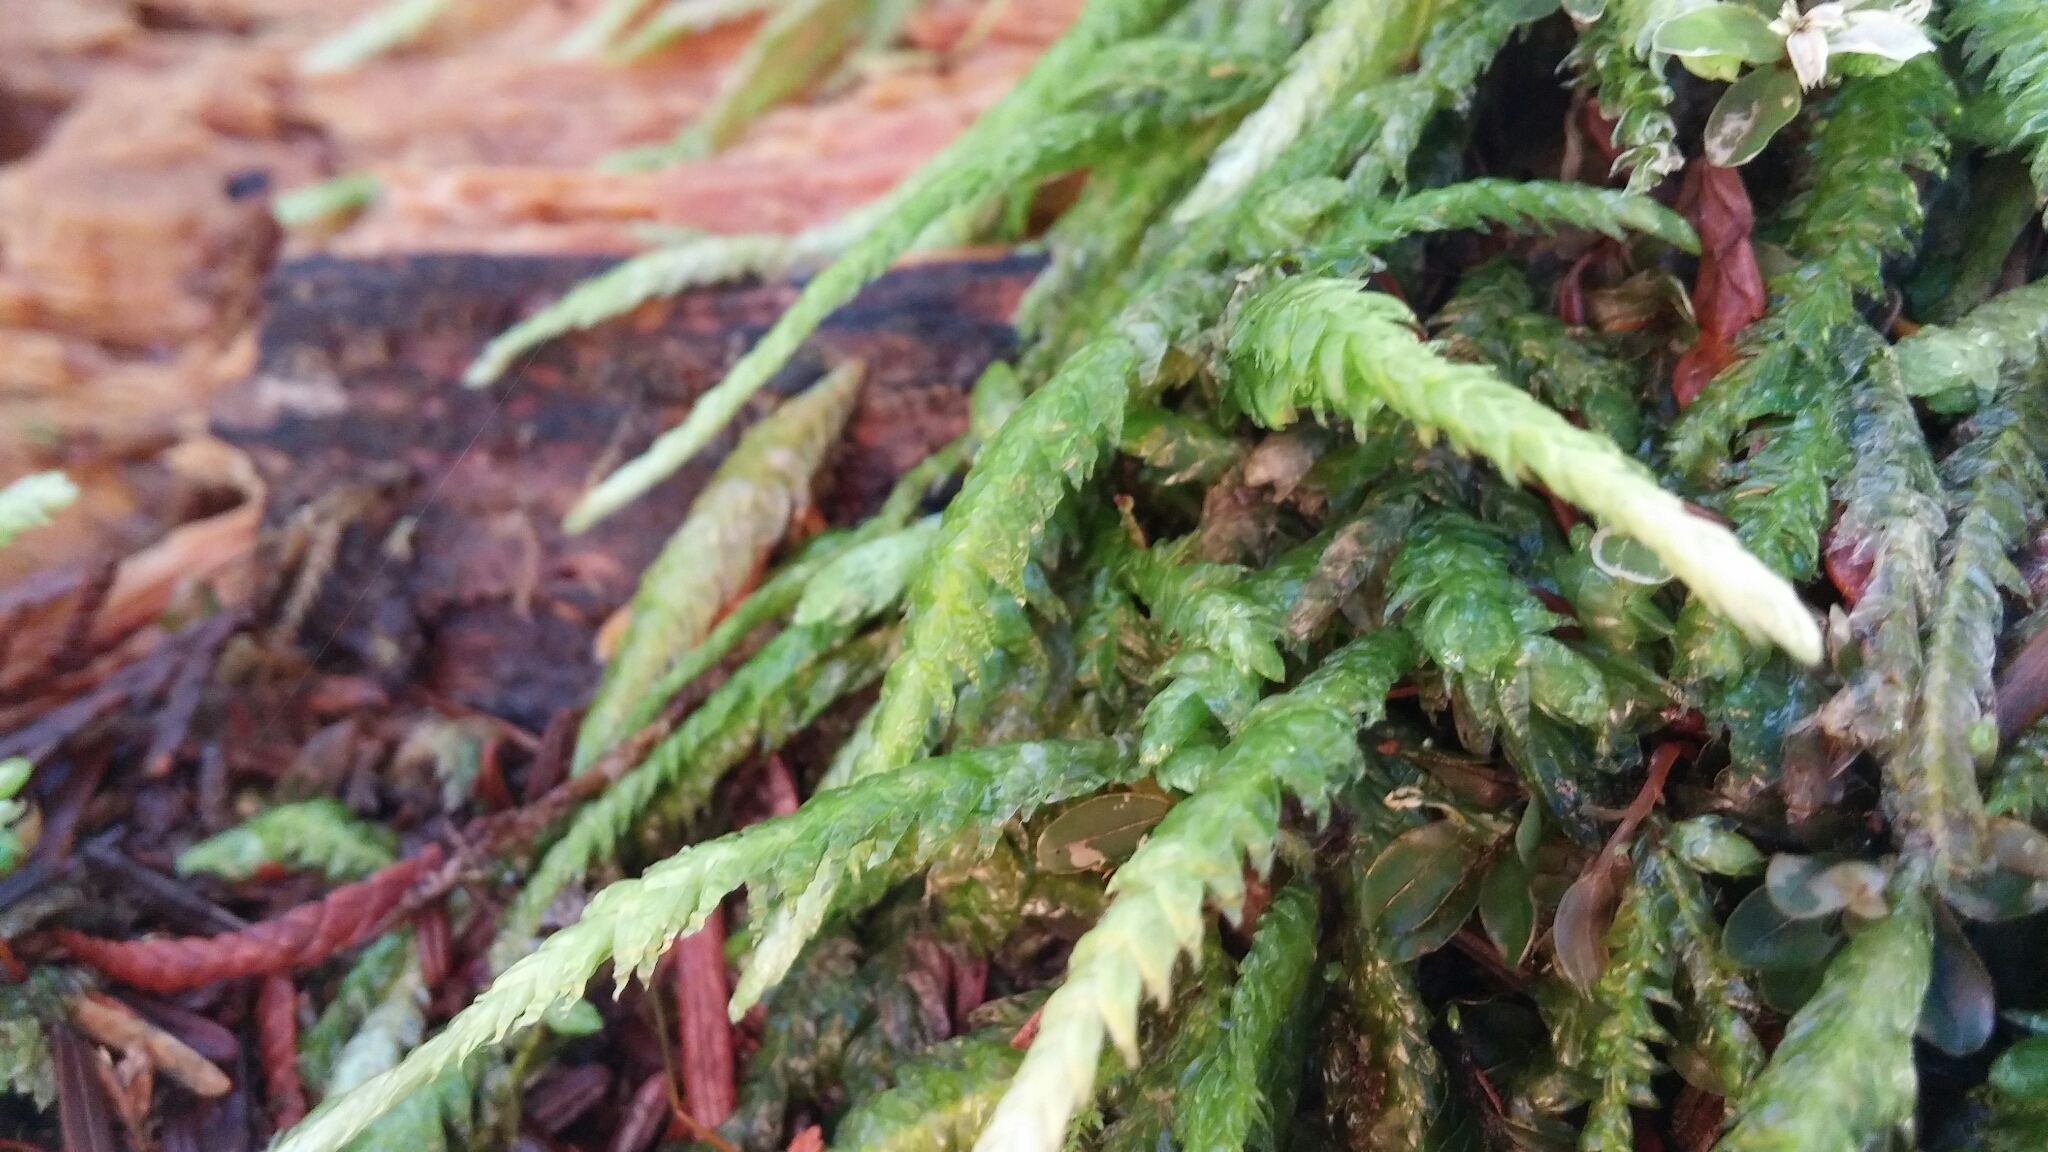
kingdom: Plantae
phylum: Bryophyta
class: Bryopsida
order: Hypnales
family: Plagiotheciaceae
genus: Plagiothecium
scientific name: Plagiothecium undulatum
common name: Waved silk-moss
